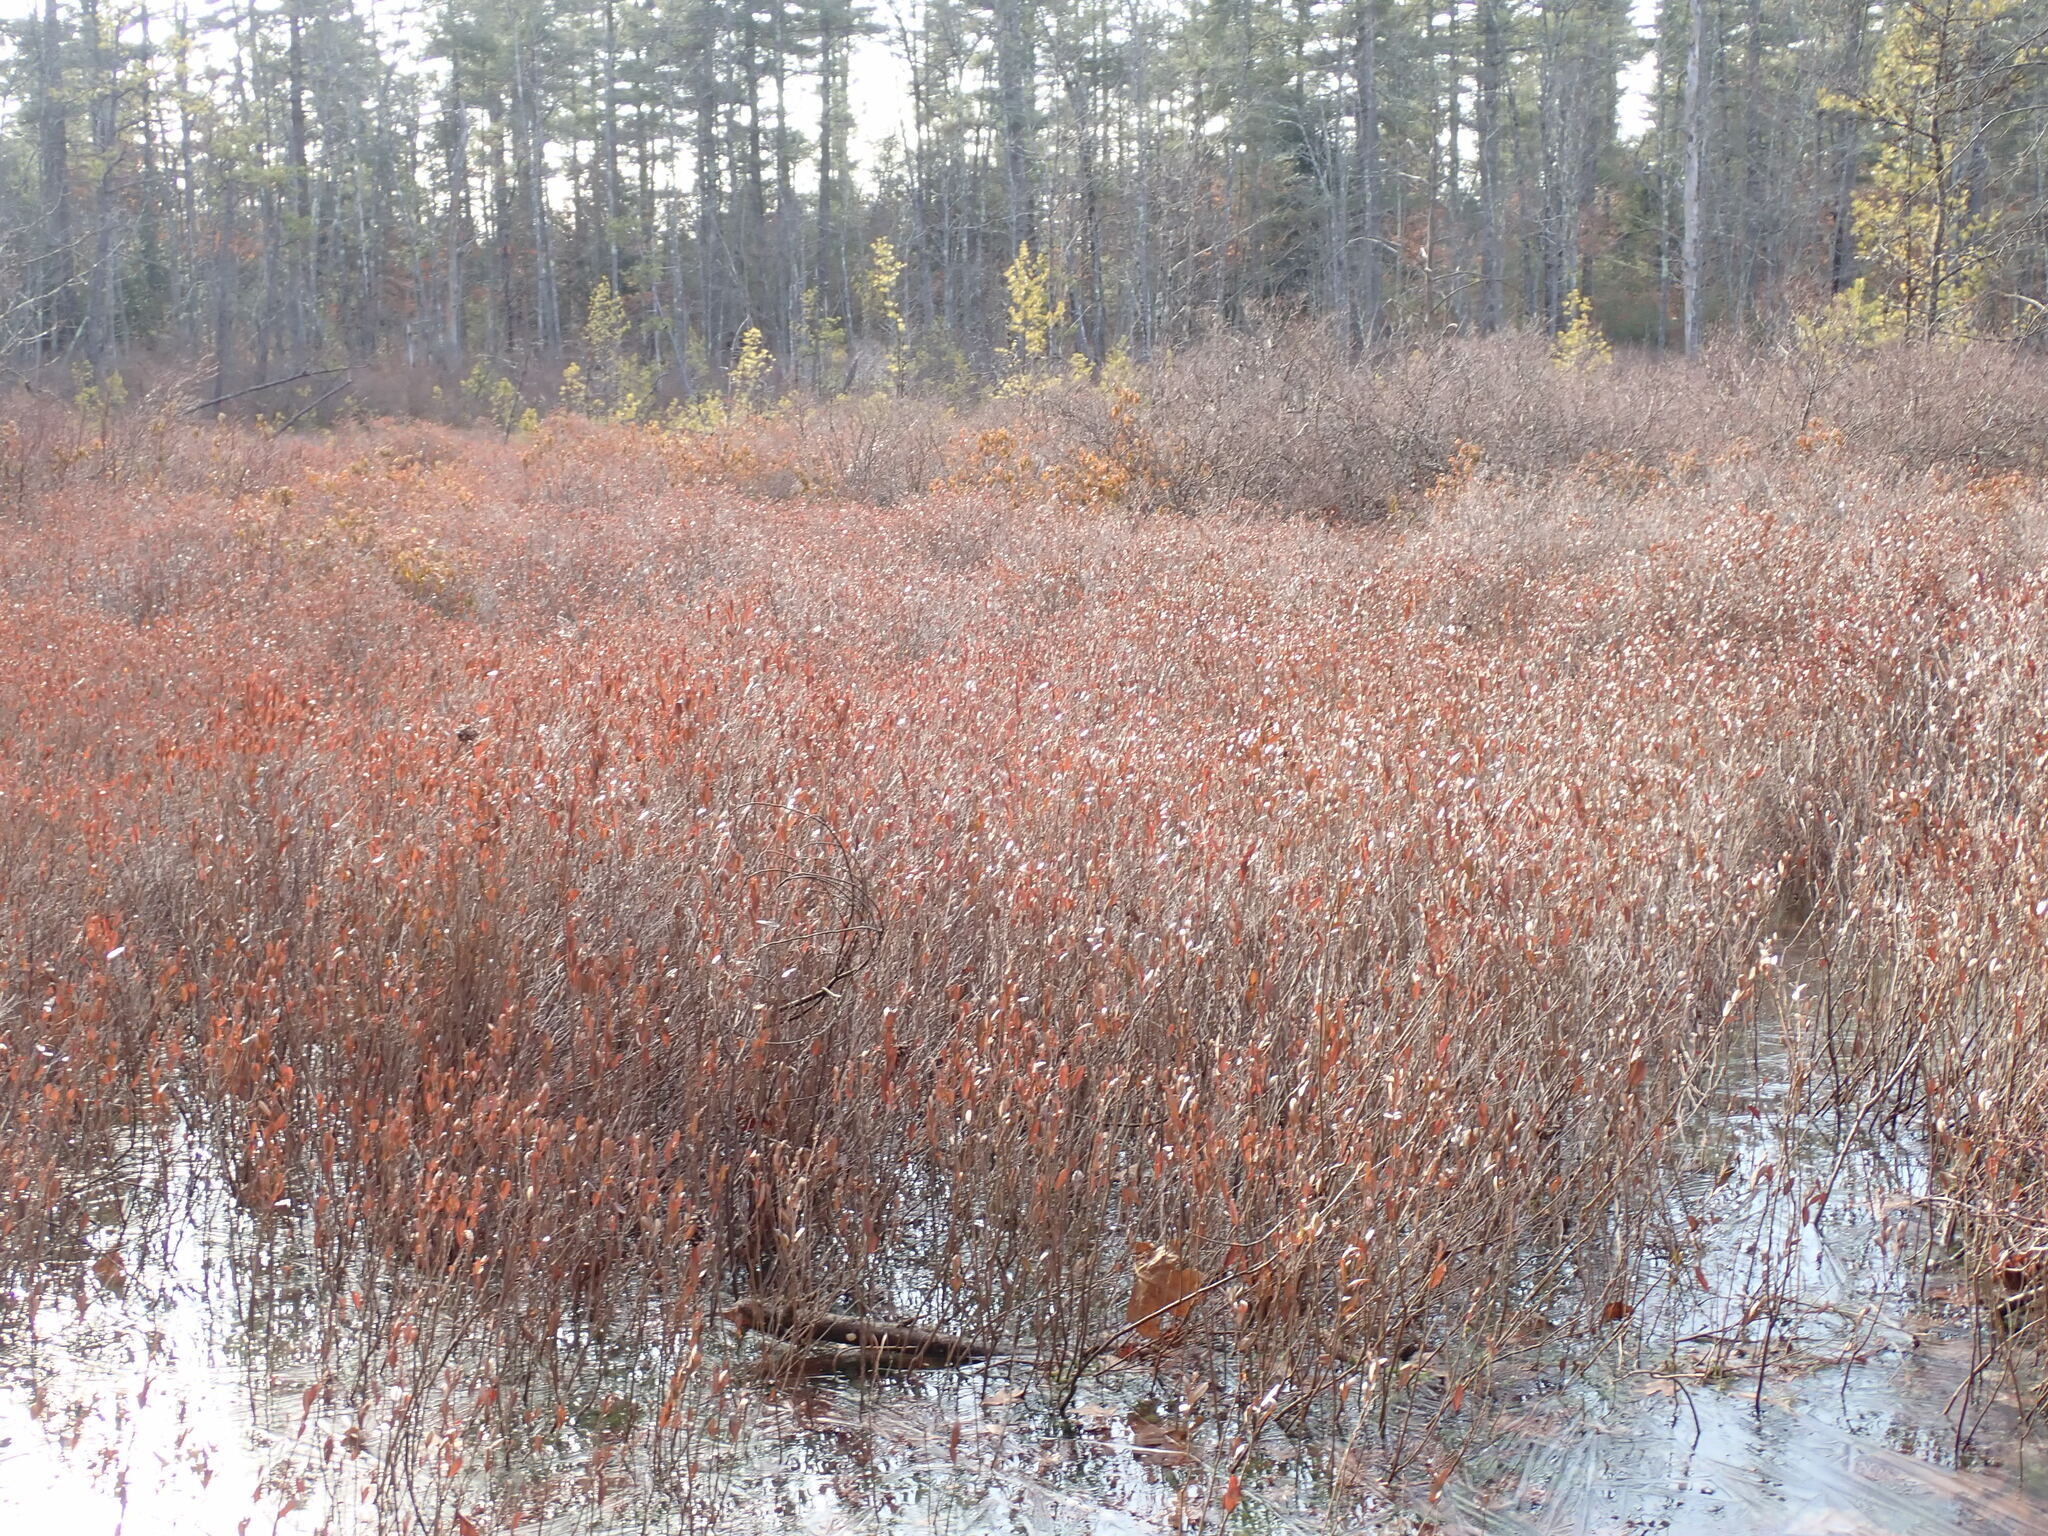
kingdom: Plantae
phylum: Tracheophyta
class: Magnoliopsida
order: Ericales
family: Ericaceae
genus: Chamaedaphne
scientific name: Chamaedaphne calyculata
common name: Leatherleaf
